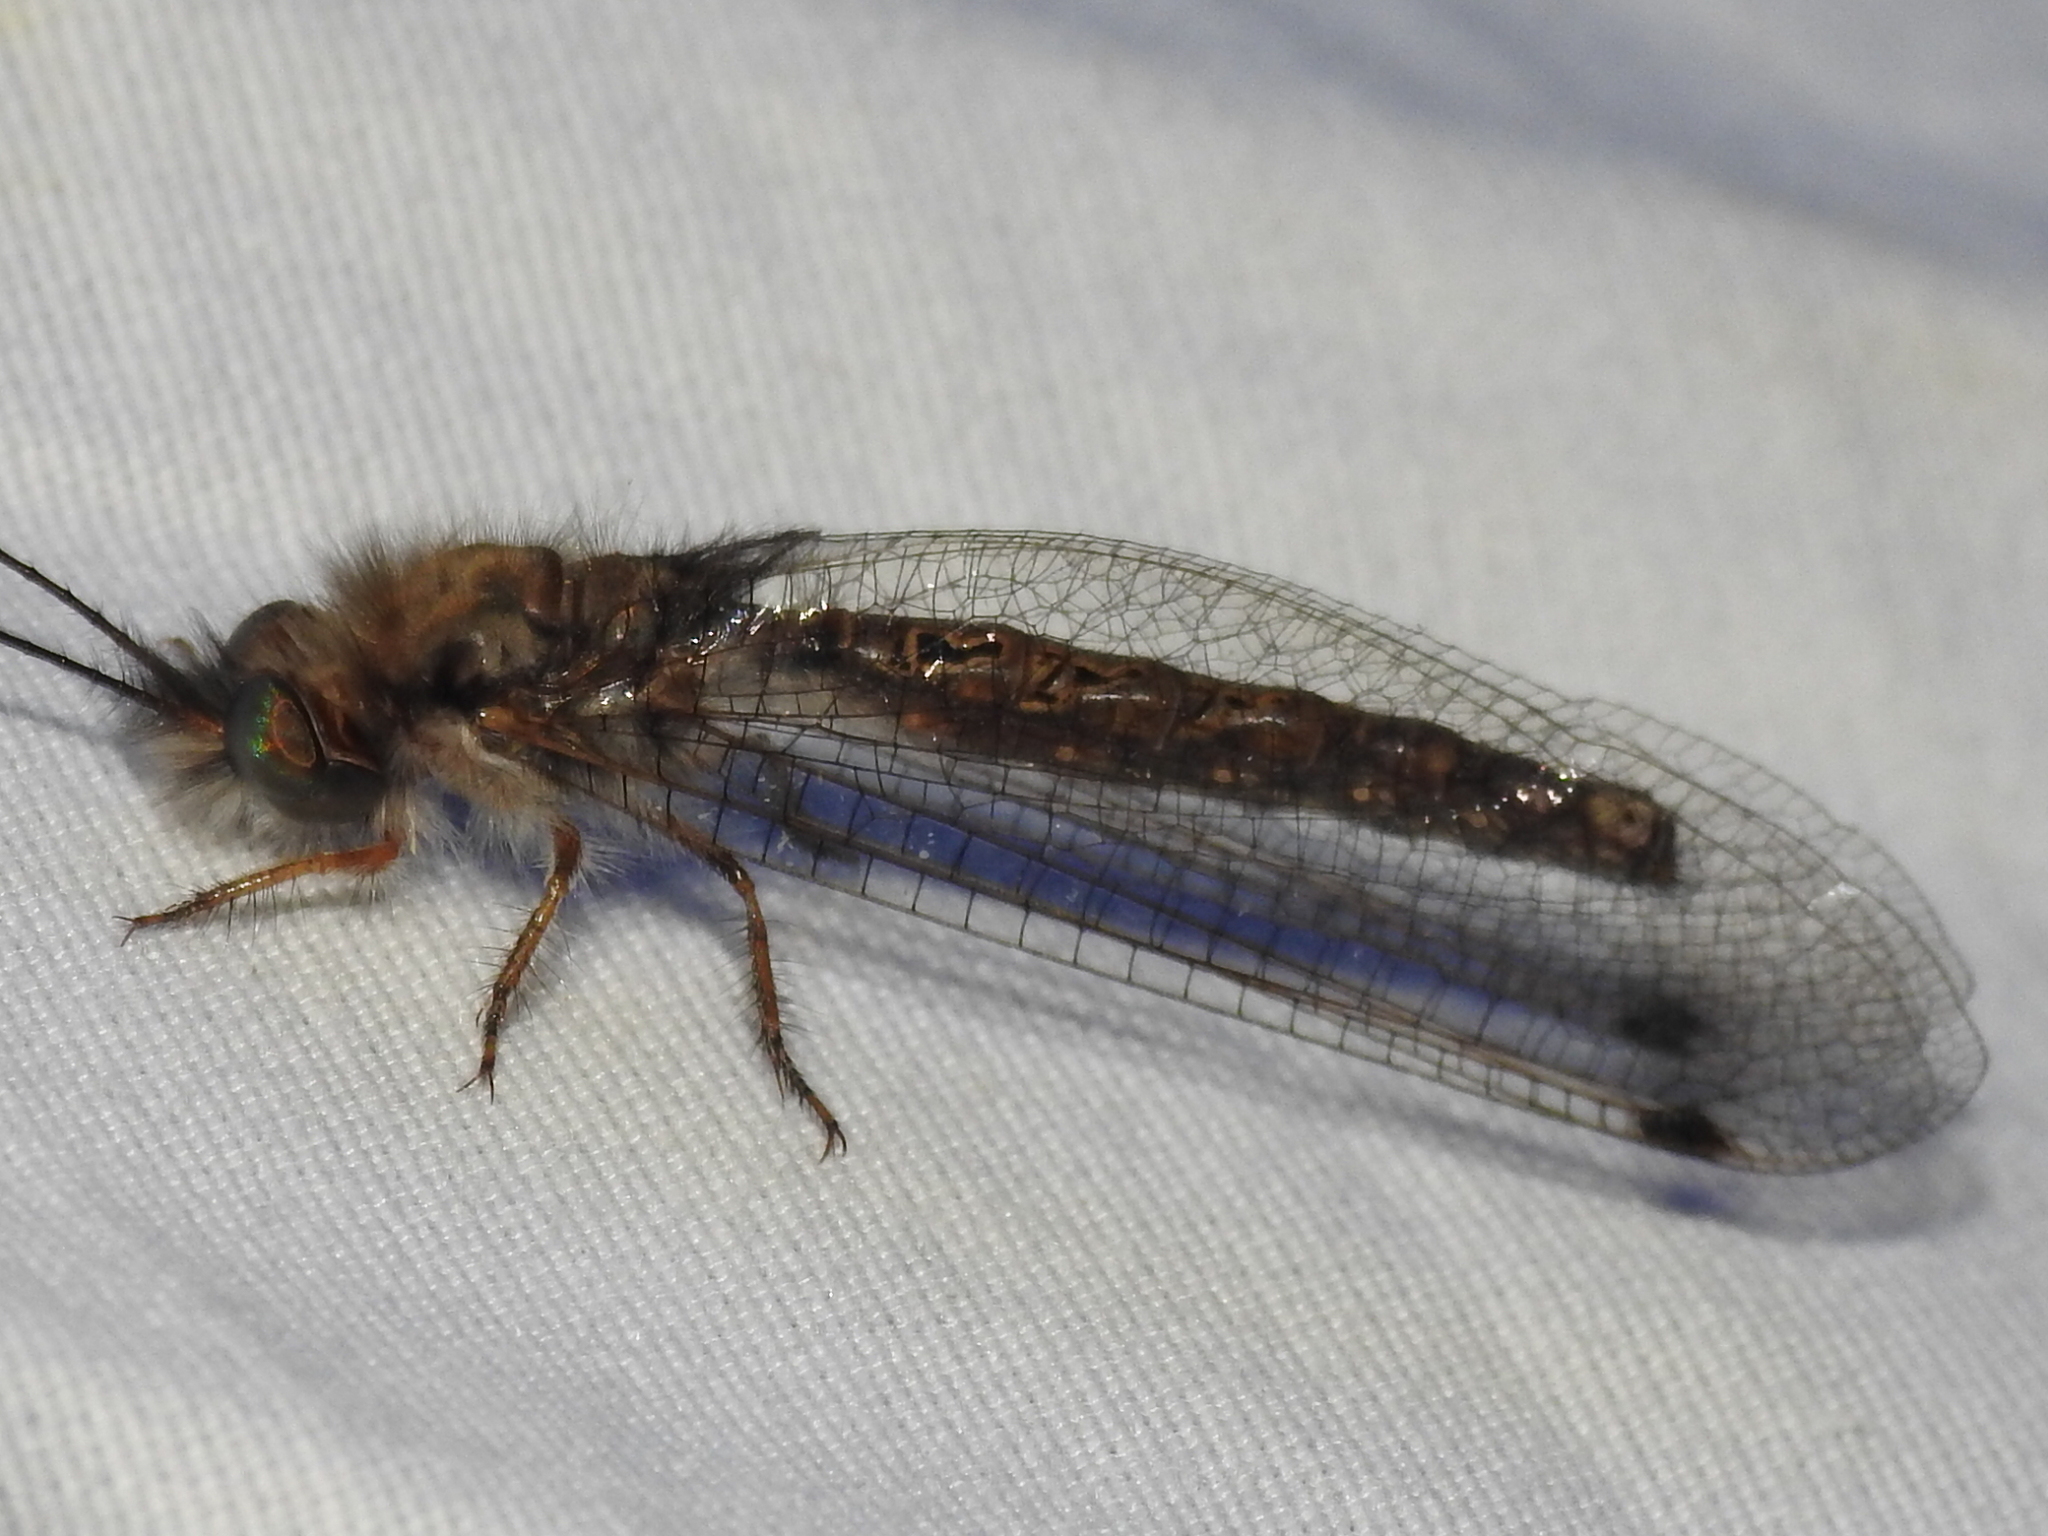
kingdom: Animalia
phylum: Arthropoda
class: Insecta
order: Neuroptera
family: Ascalaphidae
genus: Ululodes
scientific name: Ululodes macleayanus
